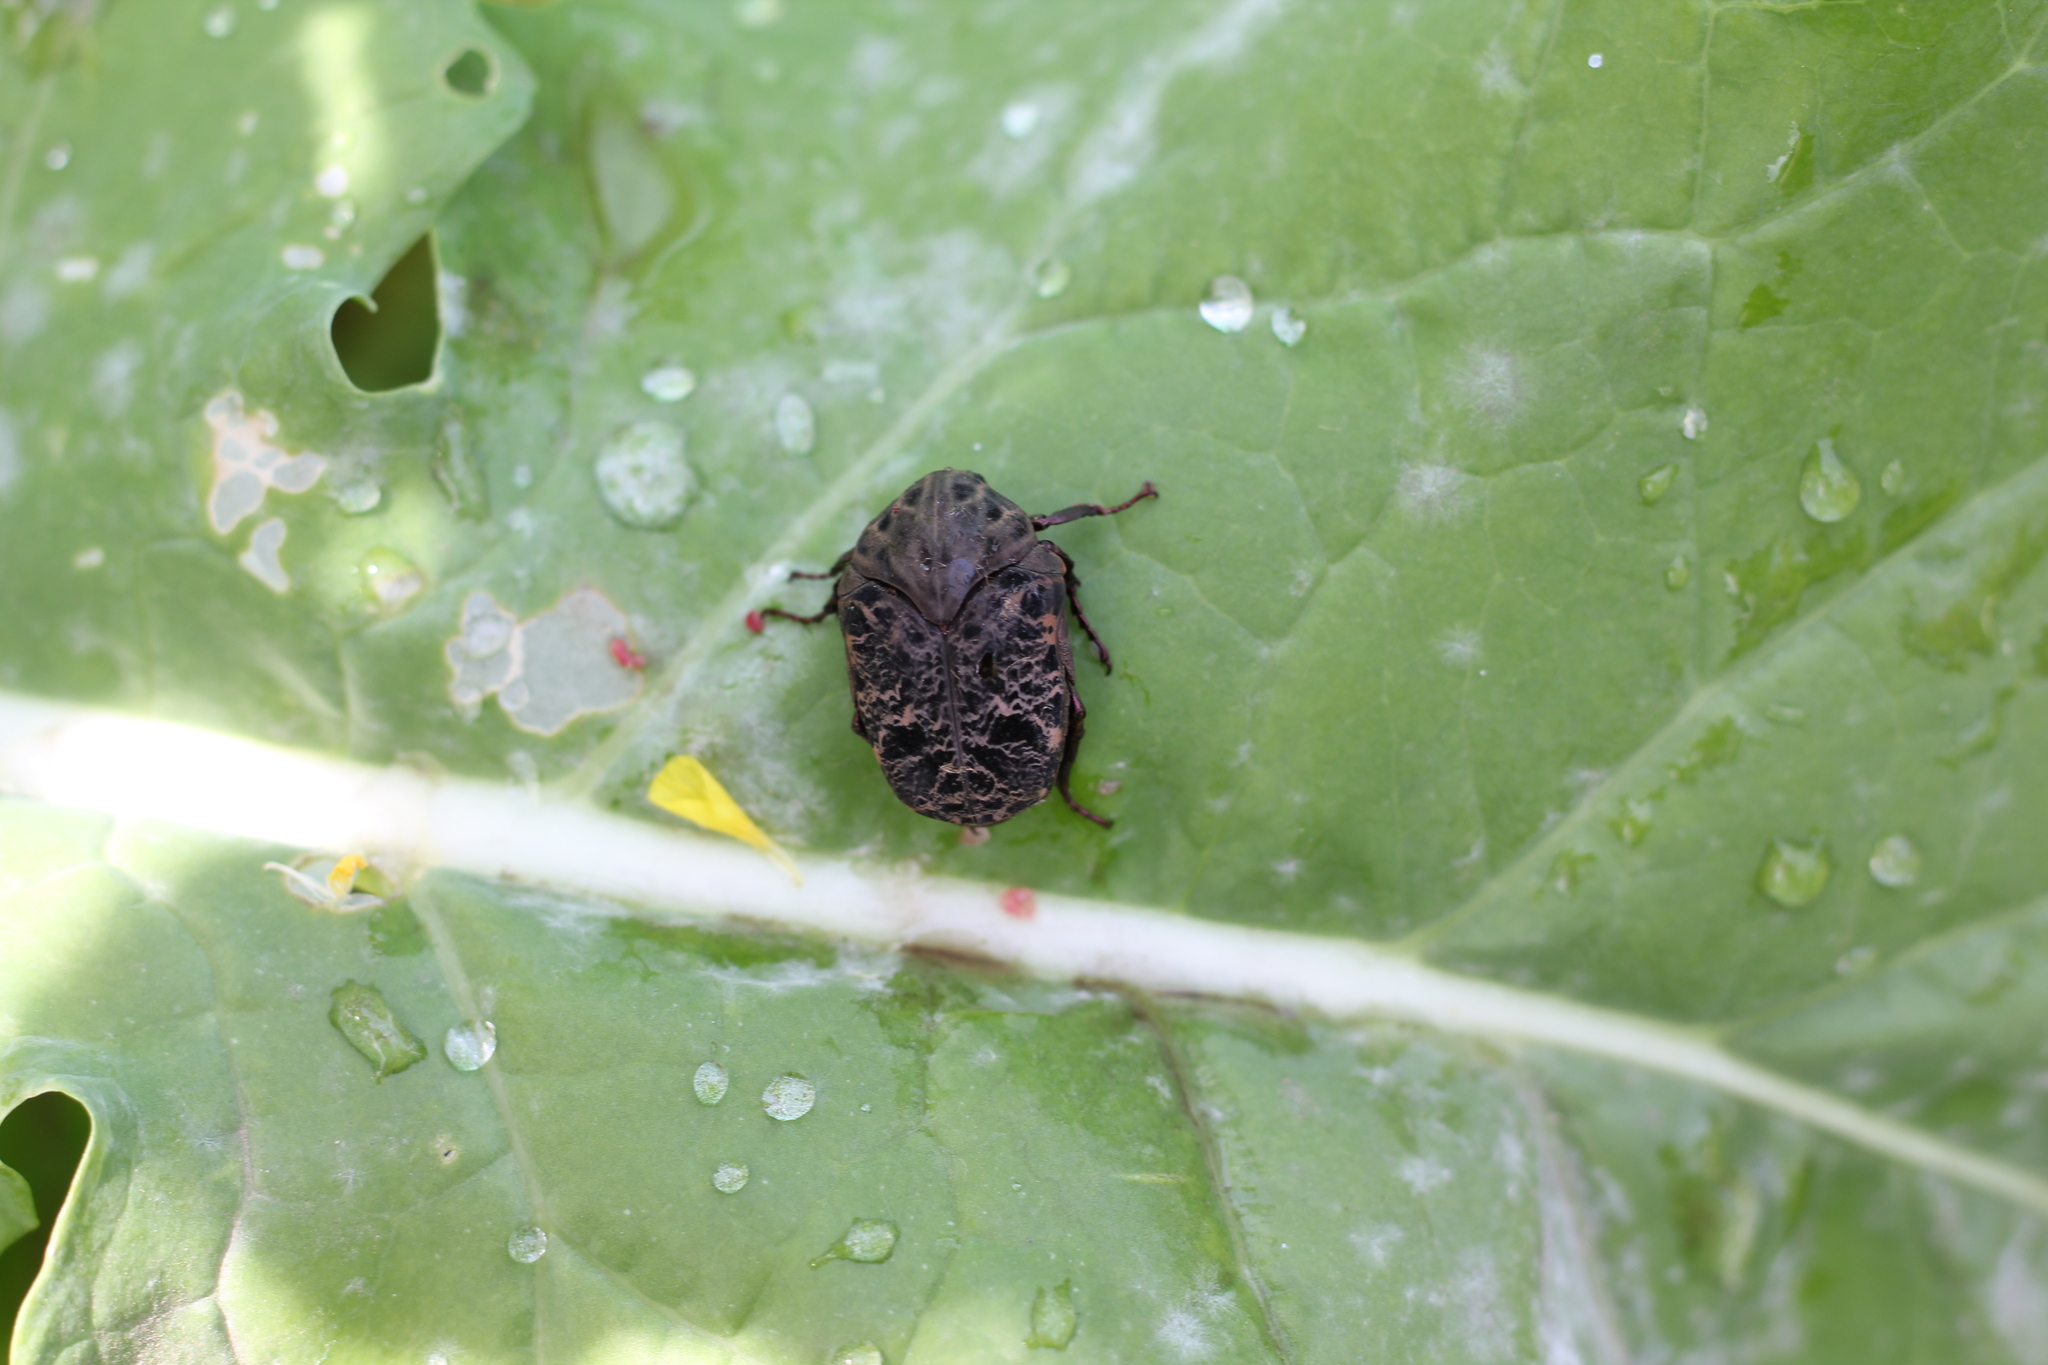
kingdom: Animalia
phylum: Arthropoda
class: Insecta
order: Coleoptera
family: Scarabaeidae
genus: Gymnetis
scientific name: Gymnetis chalcipes
